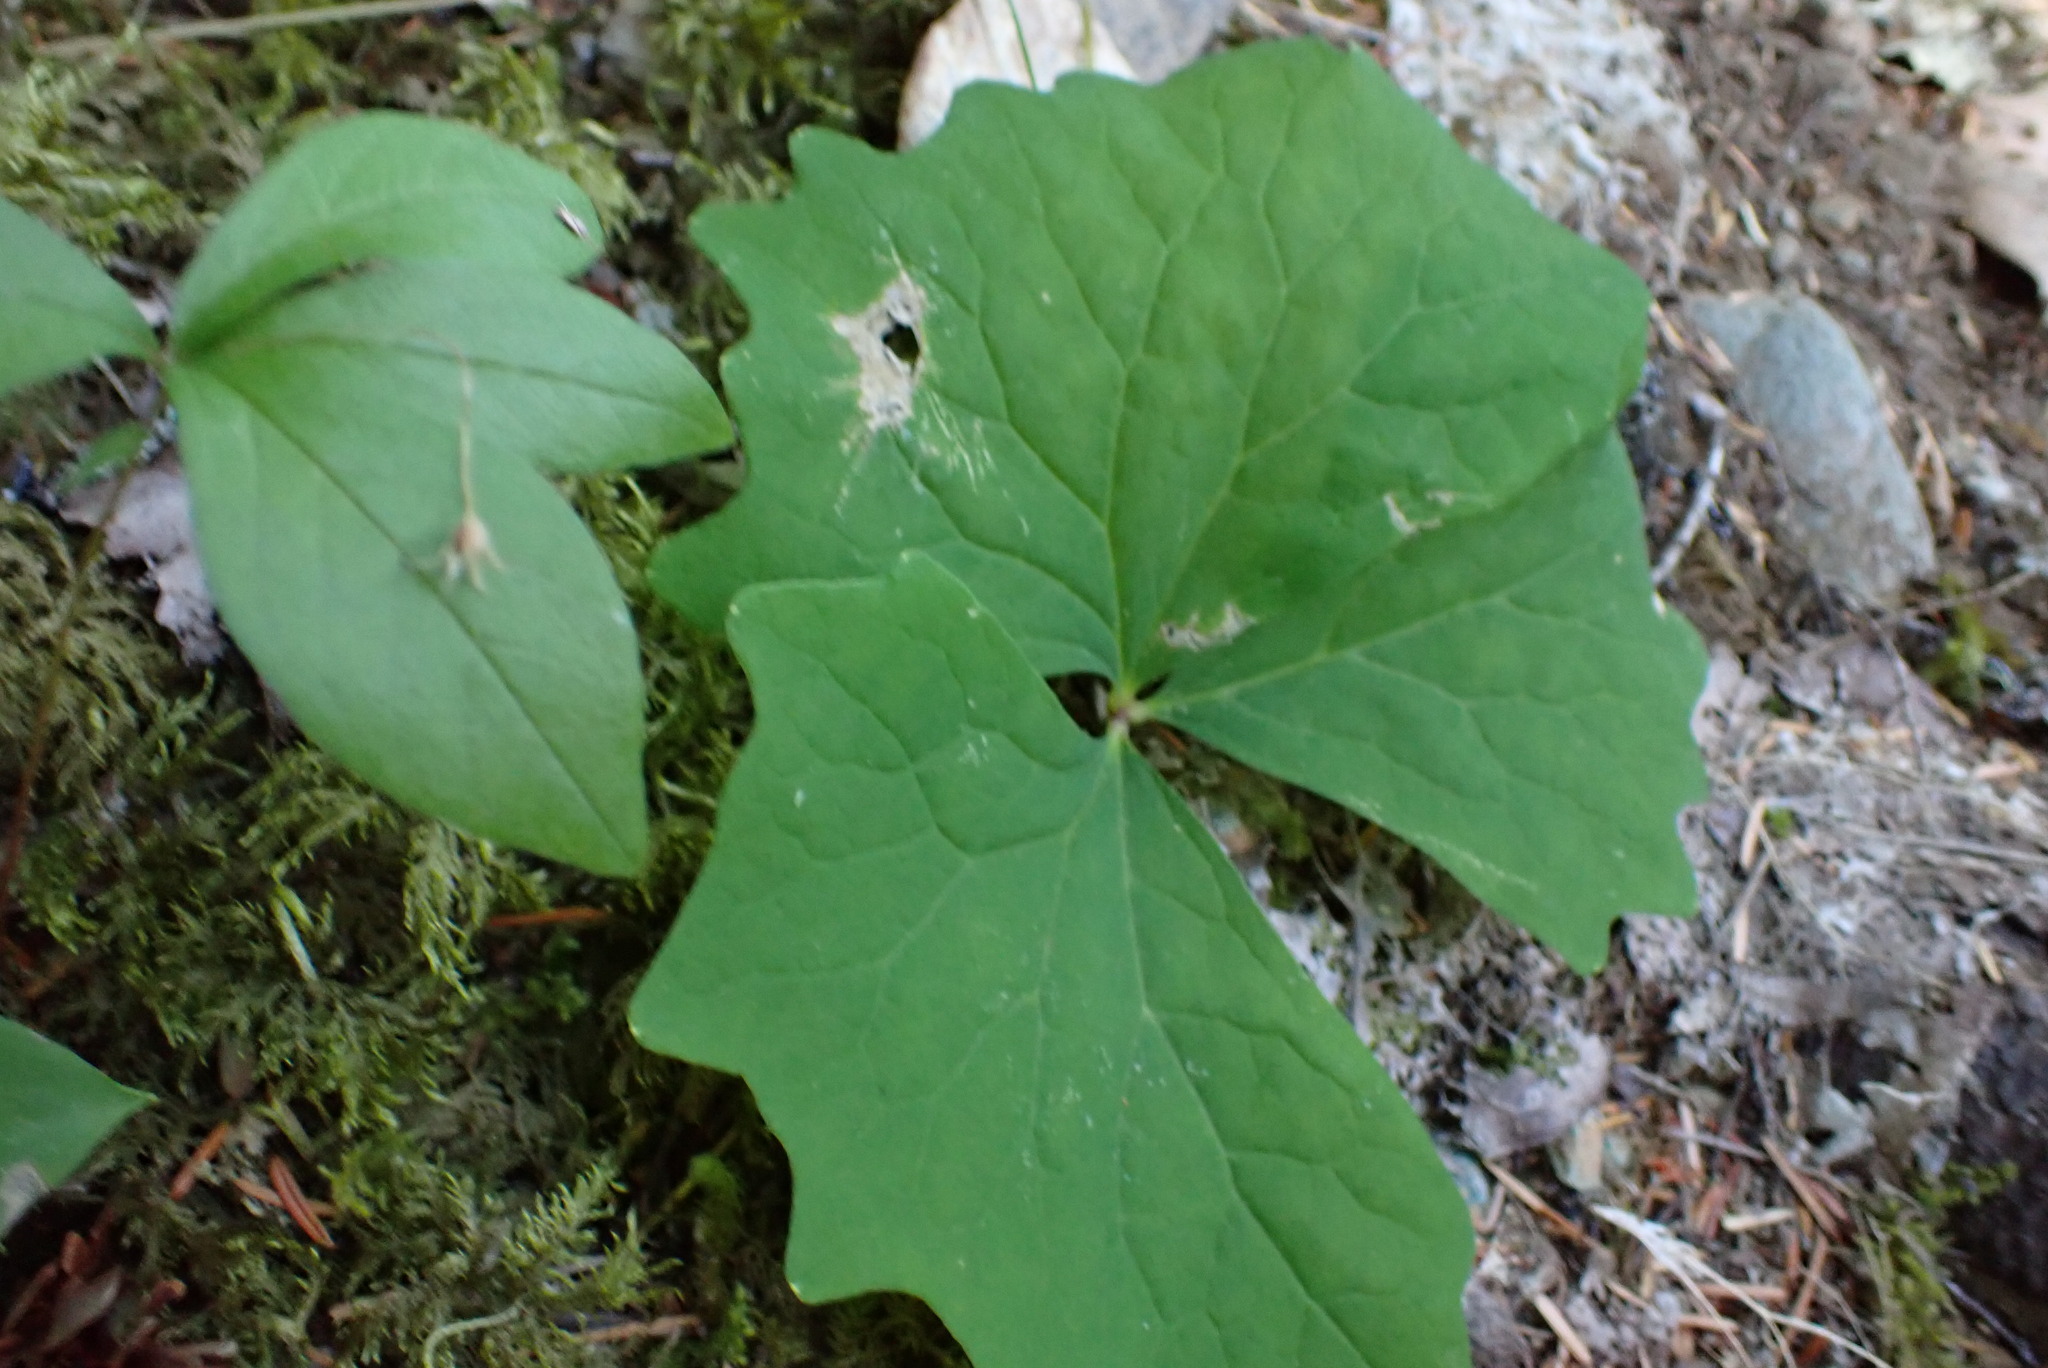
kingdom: Plantae
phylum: Tracheophyta
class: Magnoliopsida
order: Ranunculales
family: Berberidaceae
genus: Achlys
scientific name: Achlys triphylla
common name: Vanilla-leaf
